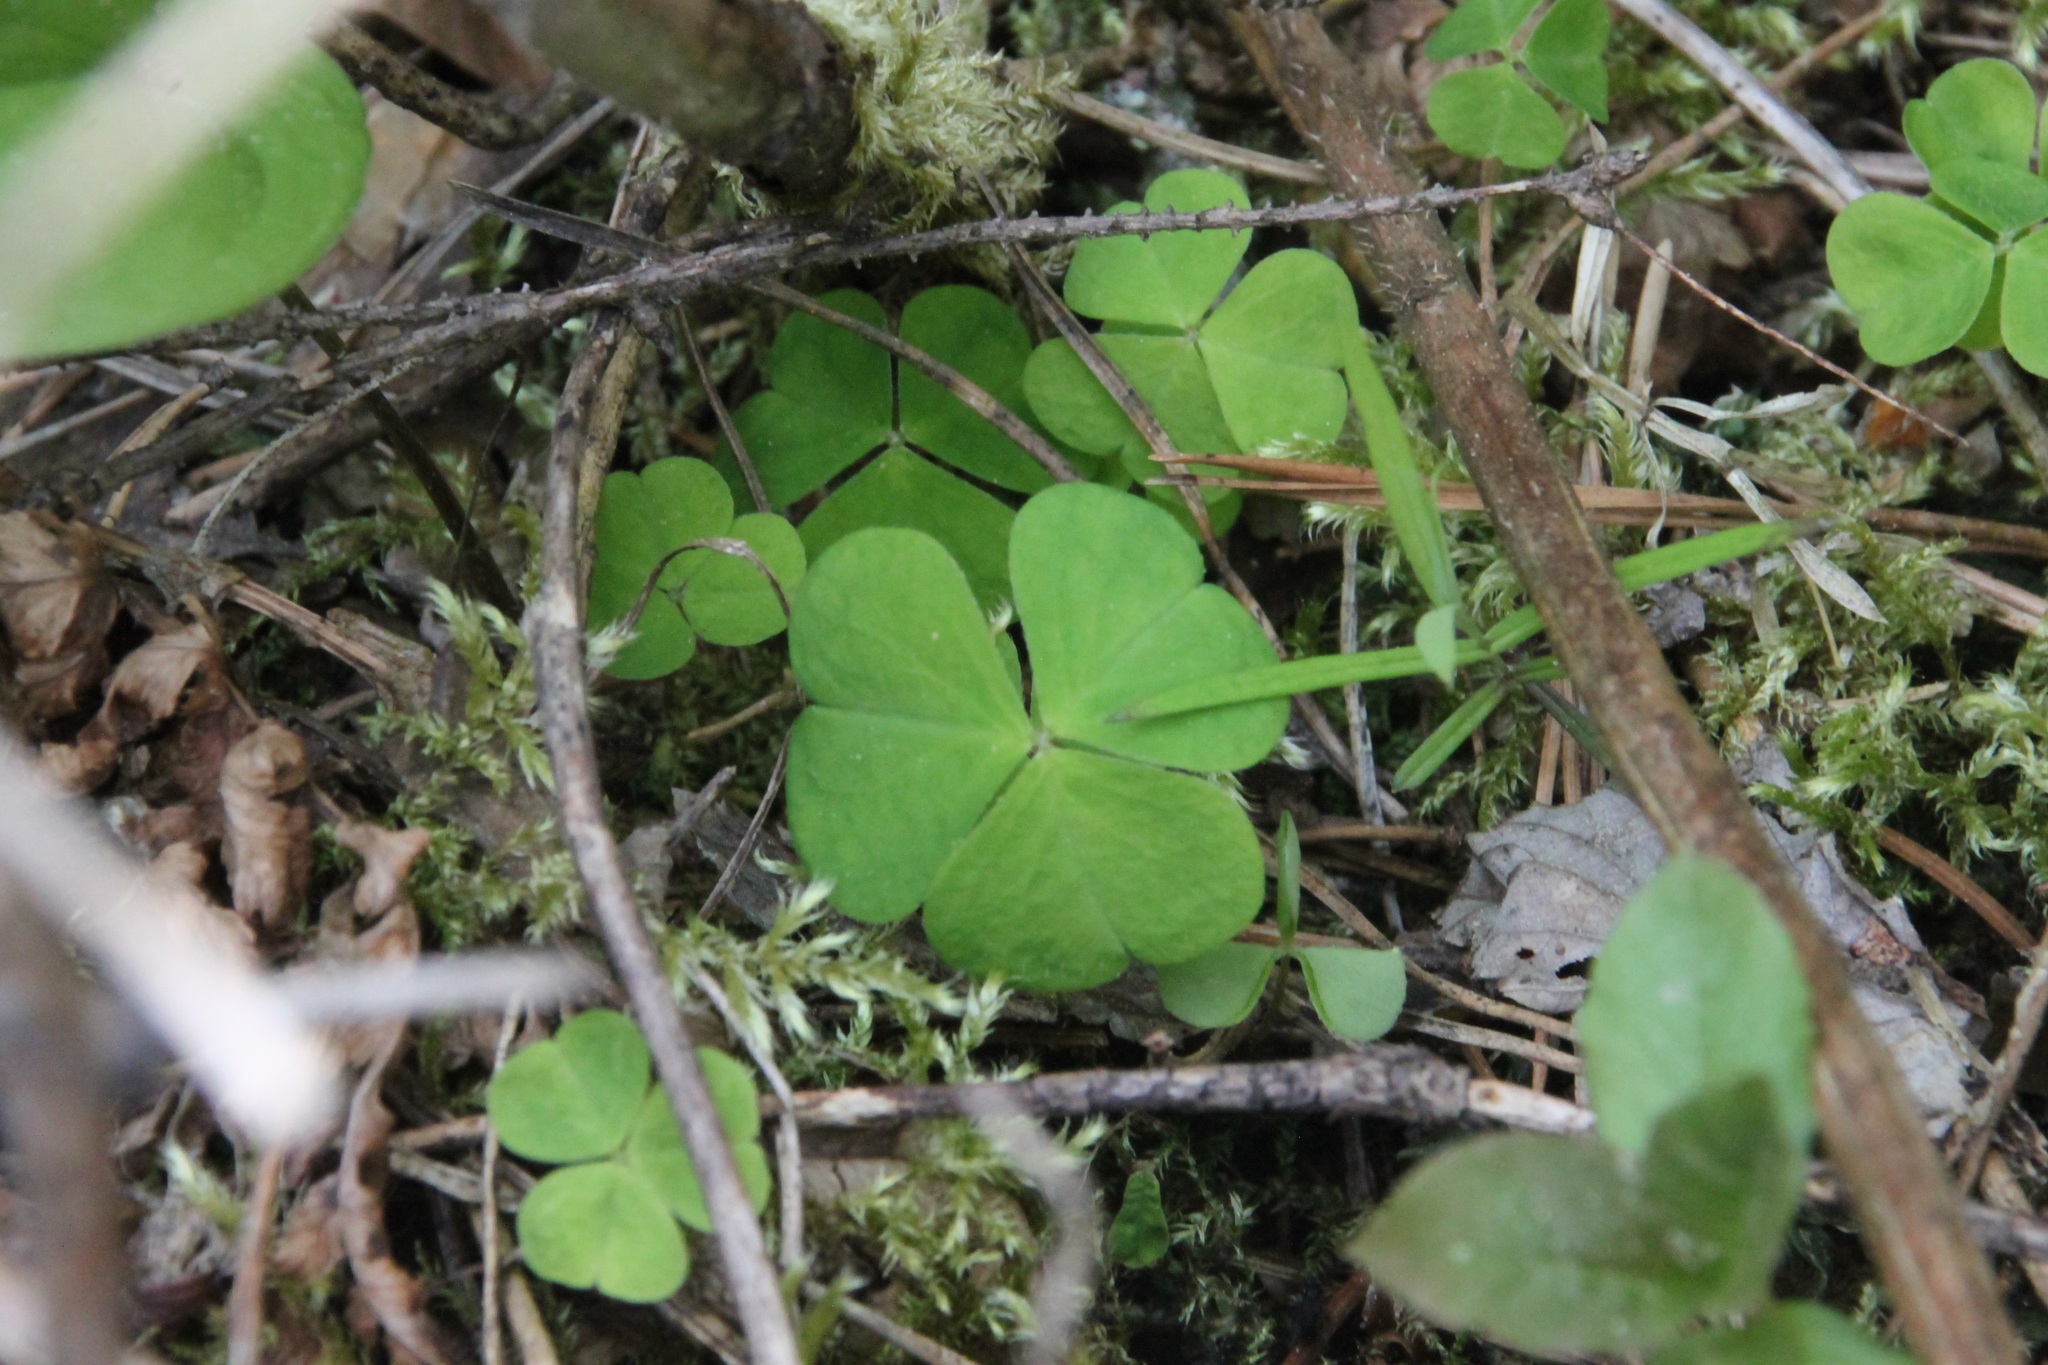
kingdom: Plantae
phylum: Tracheophyta
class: Magnoliopsida
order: Oxalidales
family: Oxalidaceae
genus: Oxalis
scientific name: Oxalis acetosella
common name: Wood-sorrel
